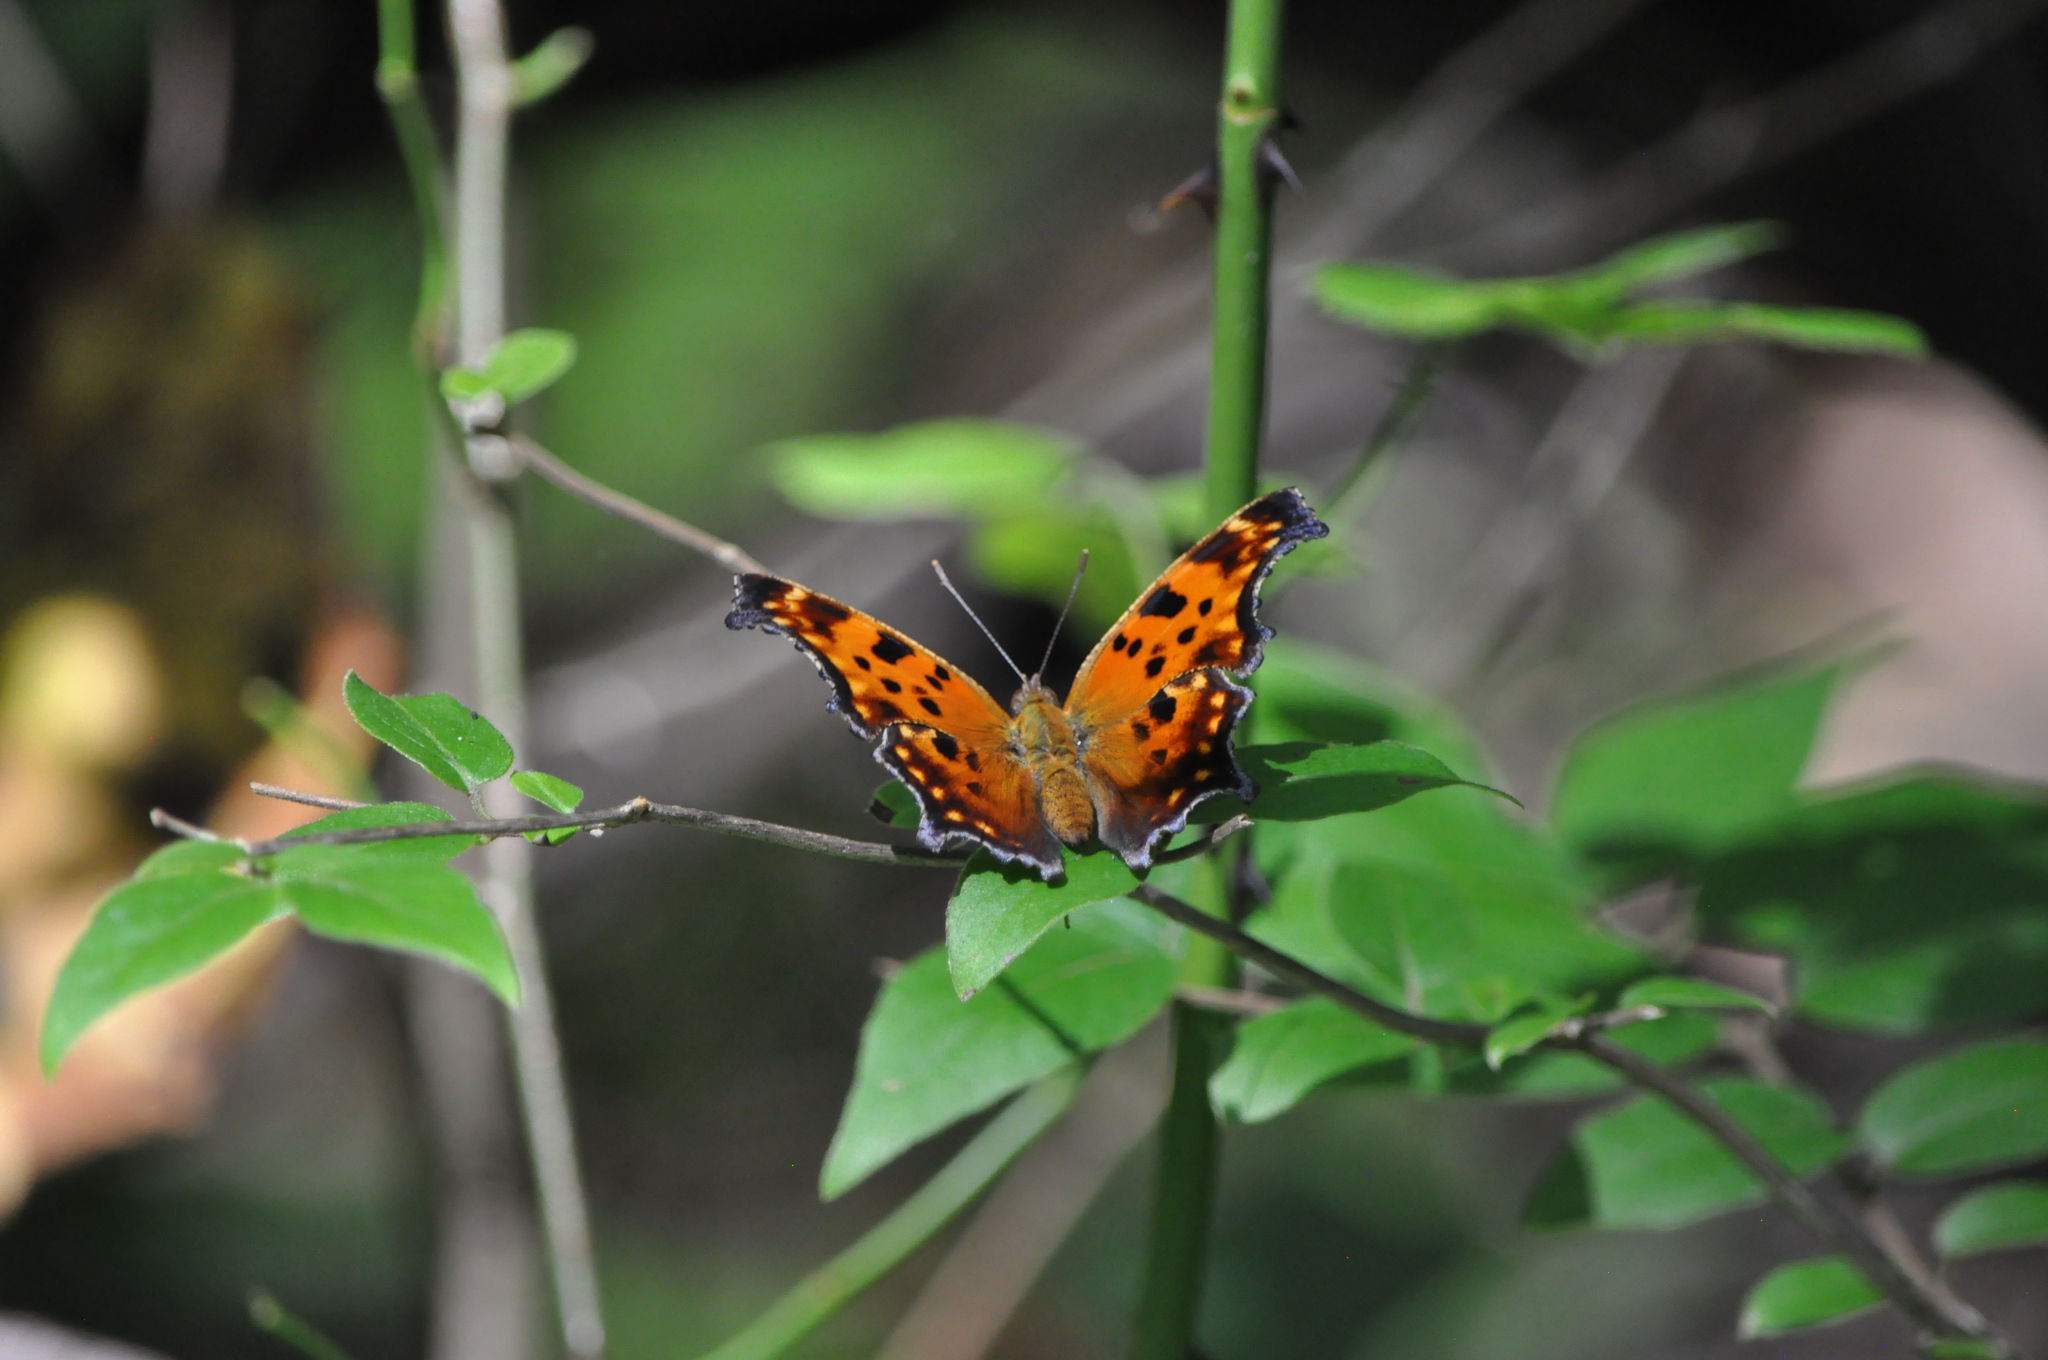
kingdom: Animalia
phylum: Arthropoda
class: Insecta
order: Lepidoptera
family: Nymphalidae
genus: Polygonia
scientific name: Polygonia comma
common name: Eastern comma
